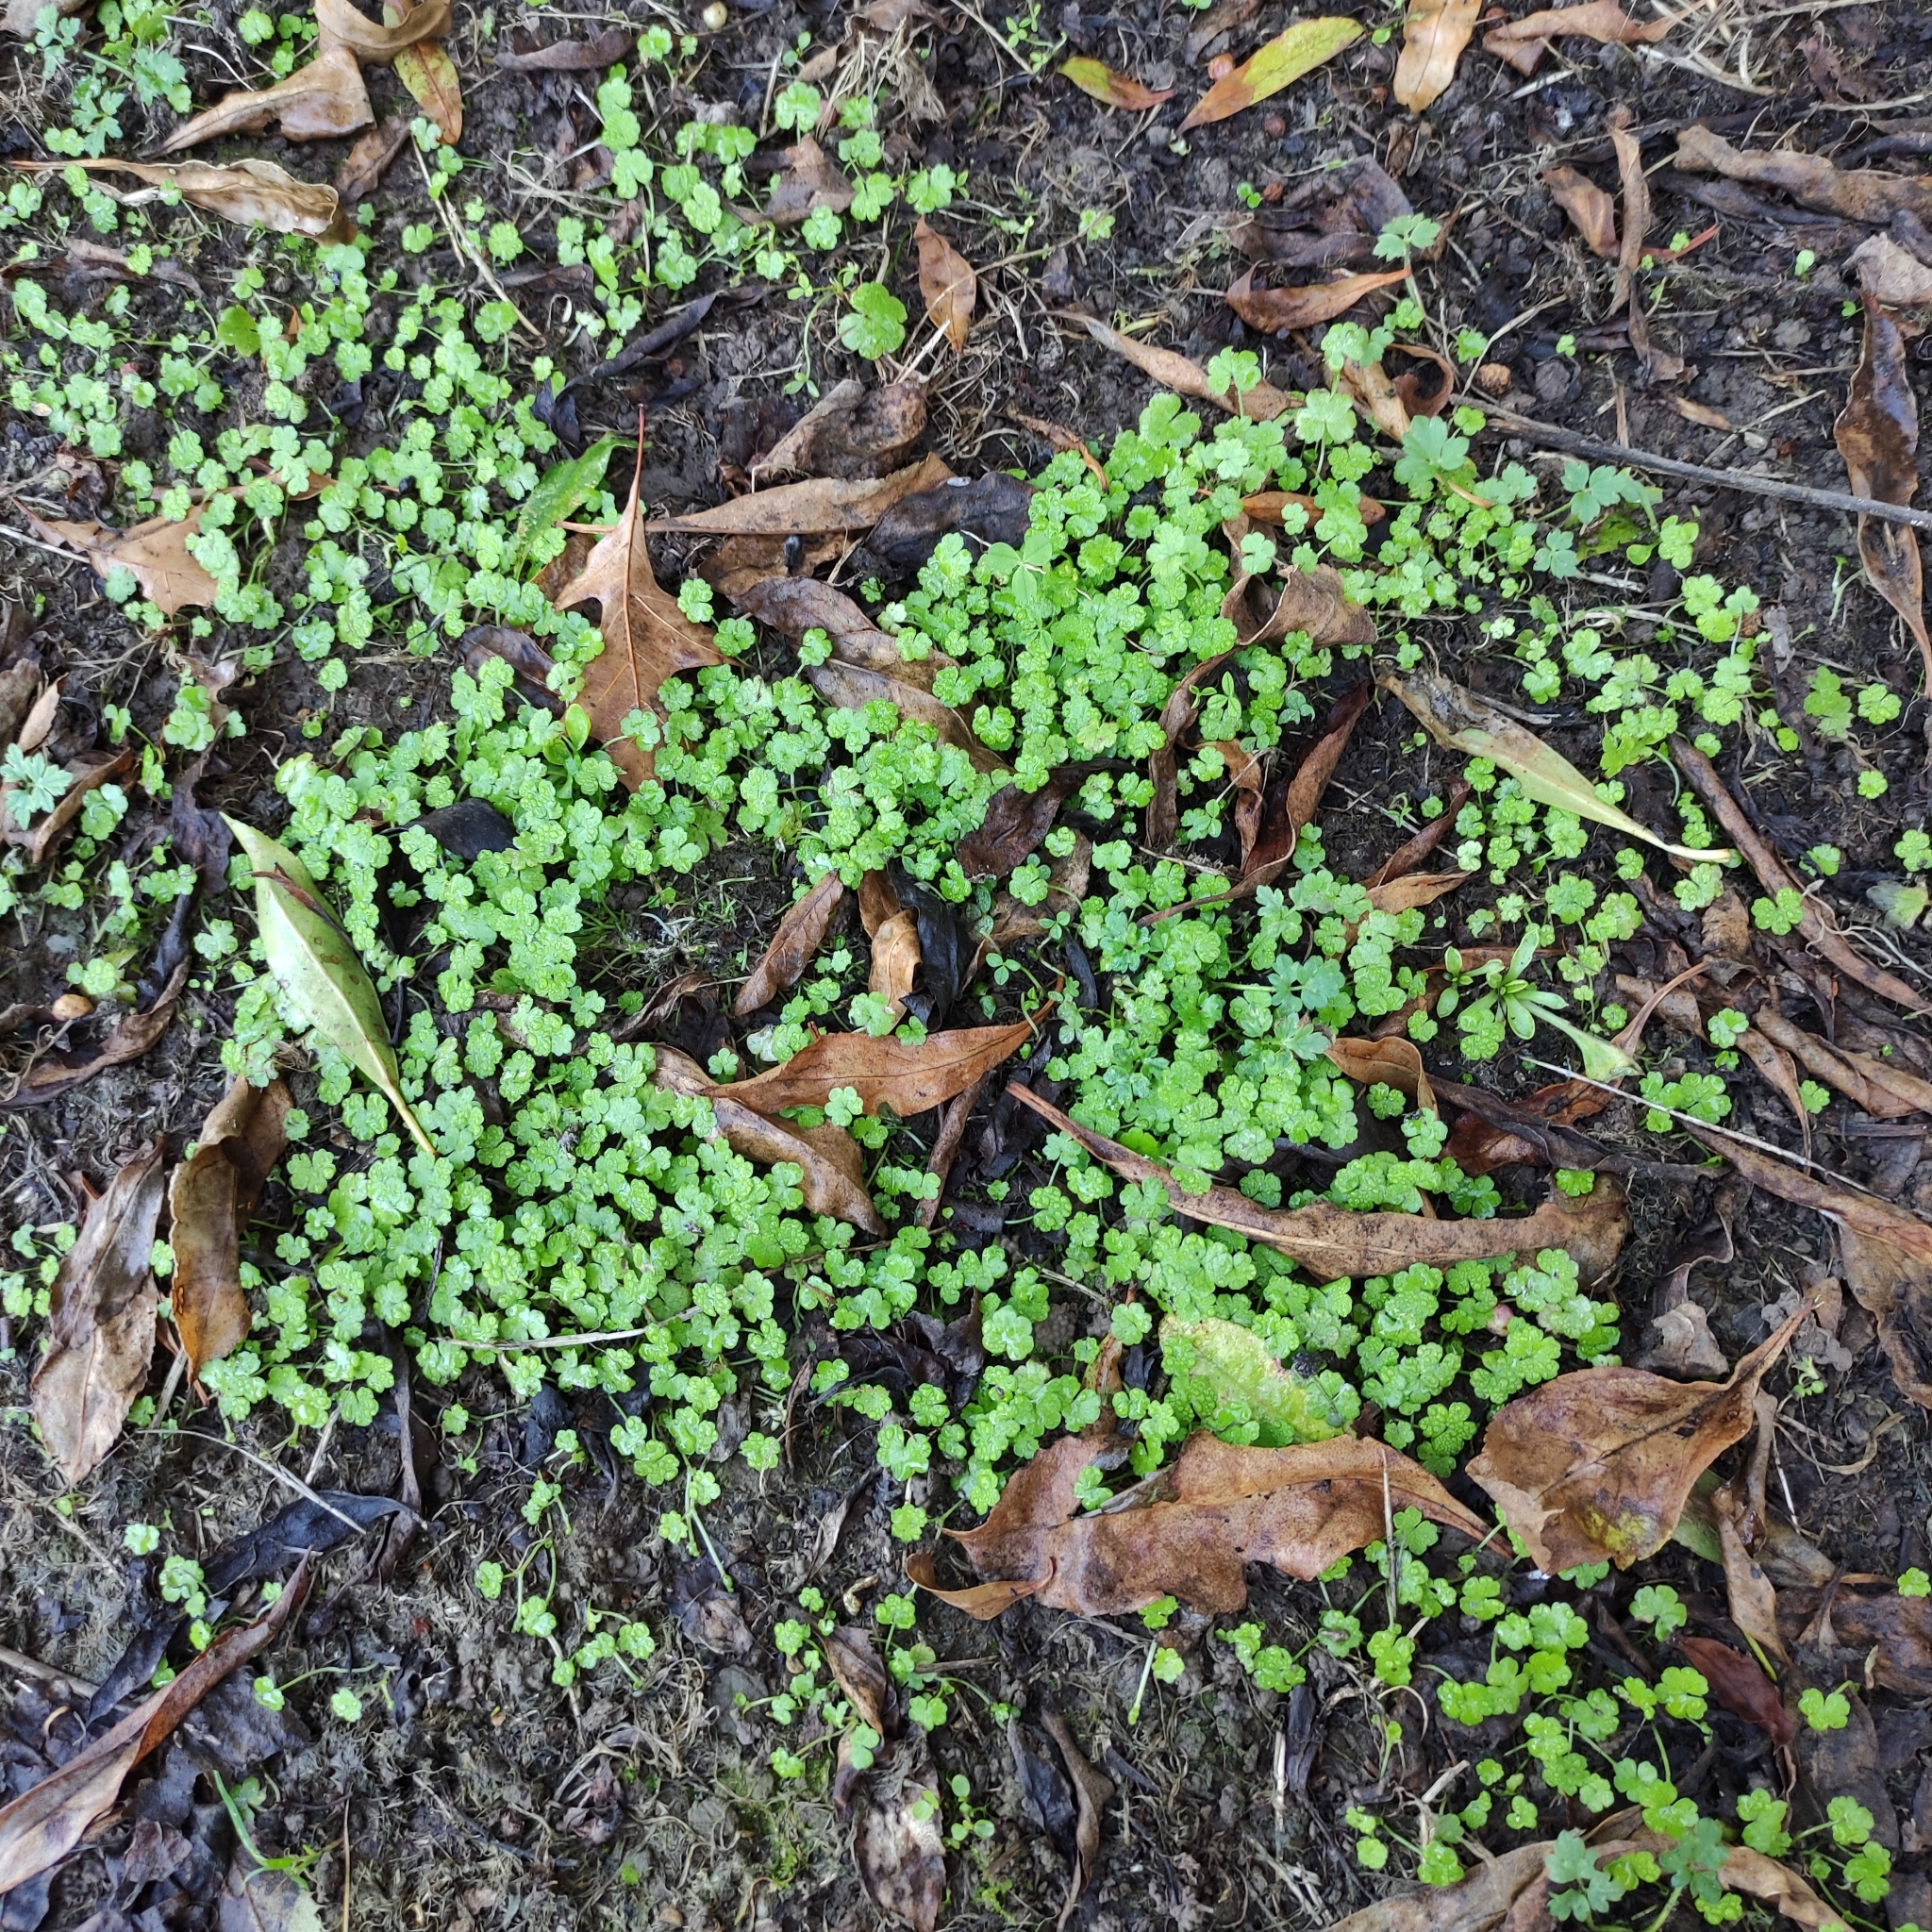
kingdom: Plantae
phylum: Tracheophyta
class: Magnoliopsida
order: Apiales
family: Araliaceae
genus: Hydrocotyle
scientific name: Hydrocotyle heteromeria
